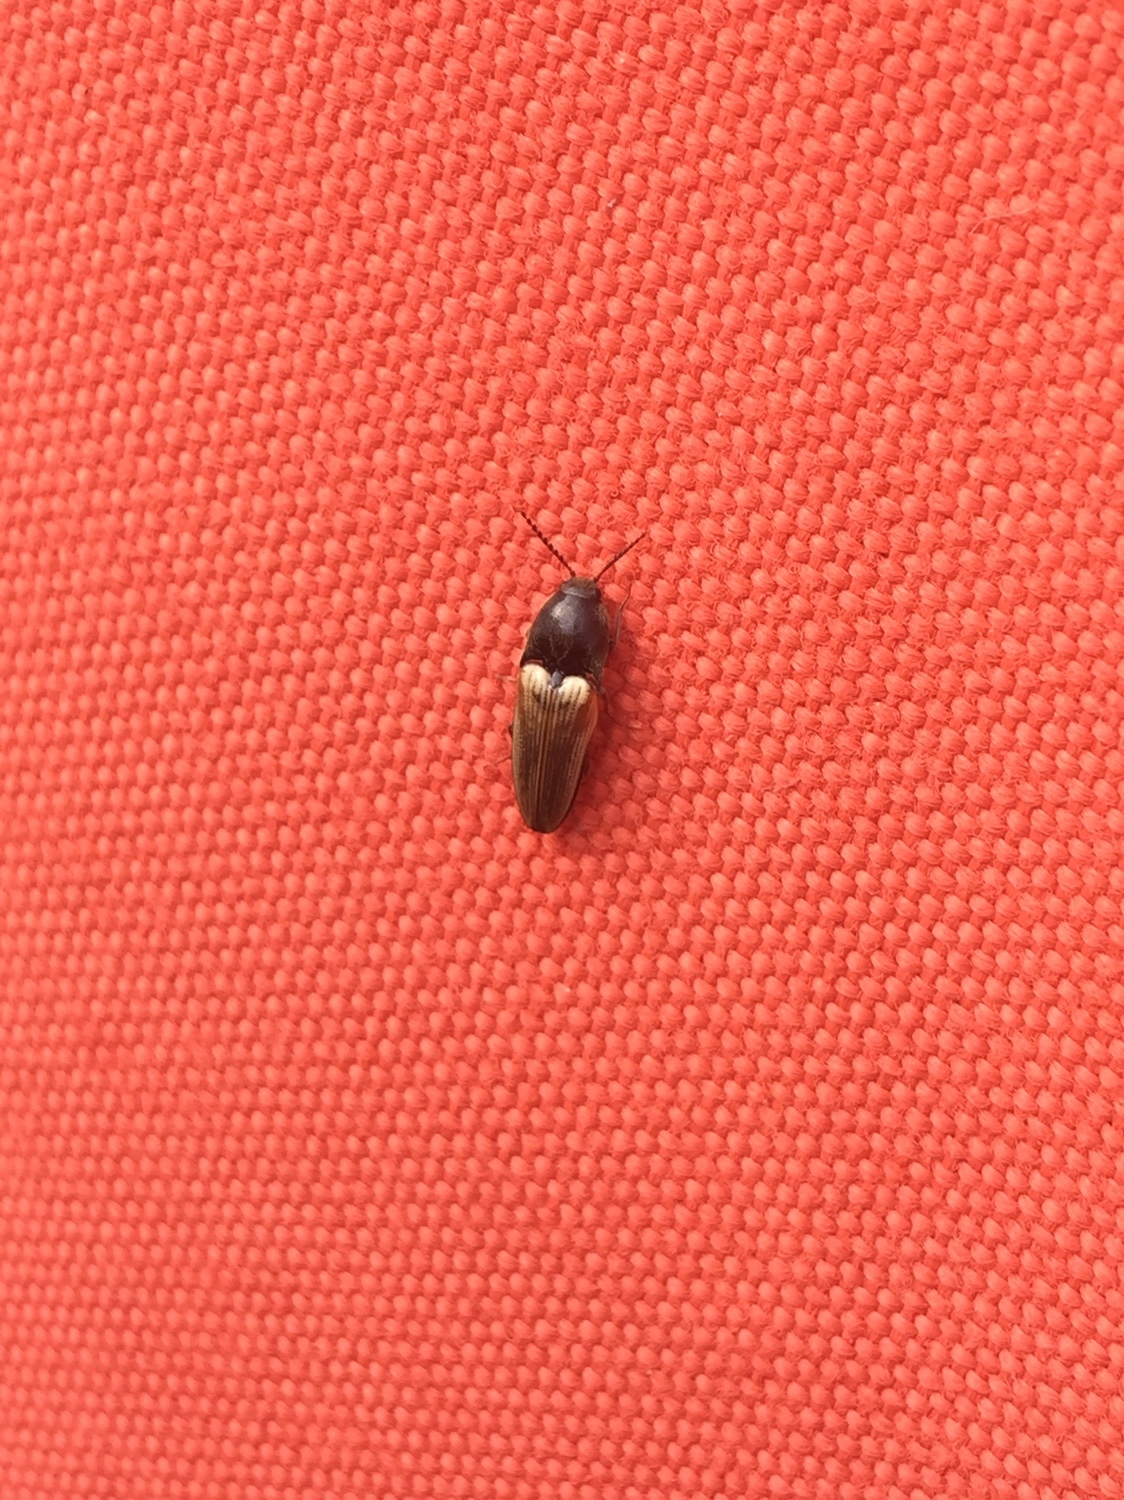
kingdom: Animalia
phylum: Arthropoda
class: Insecta
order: Coleoptera
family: Elateridae
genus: Ampedus
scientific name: Ampedus nigricollis
